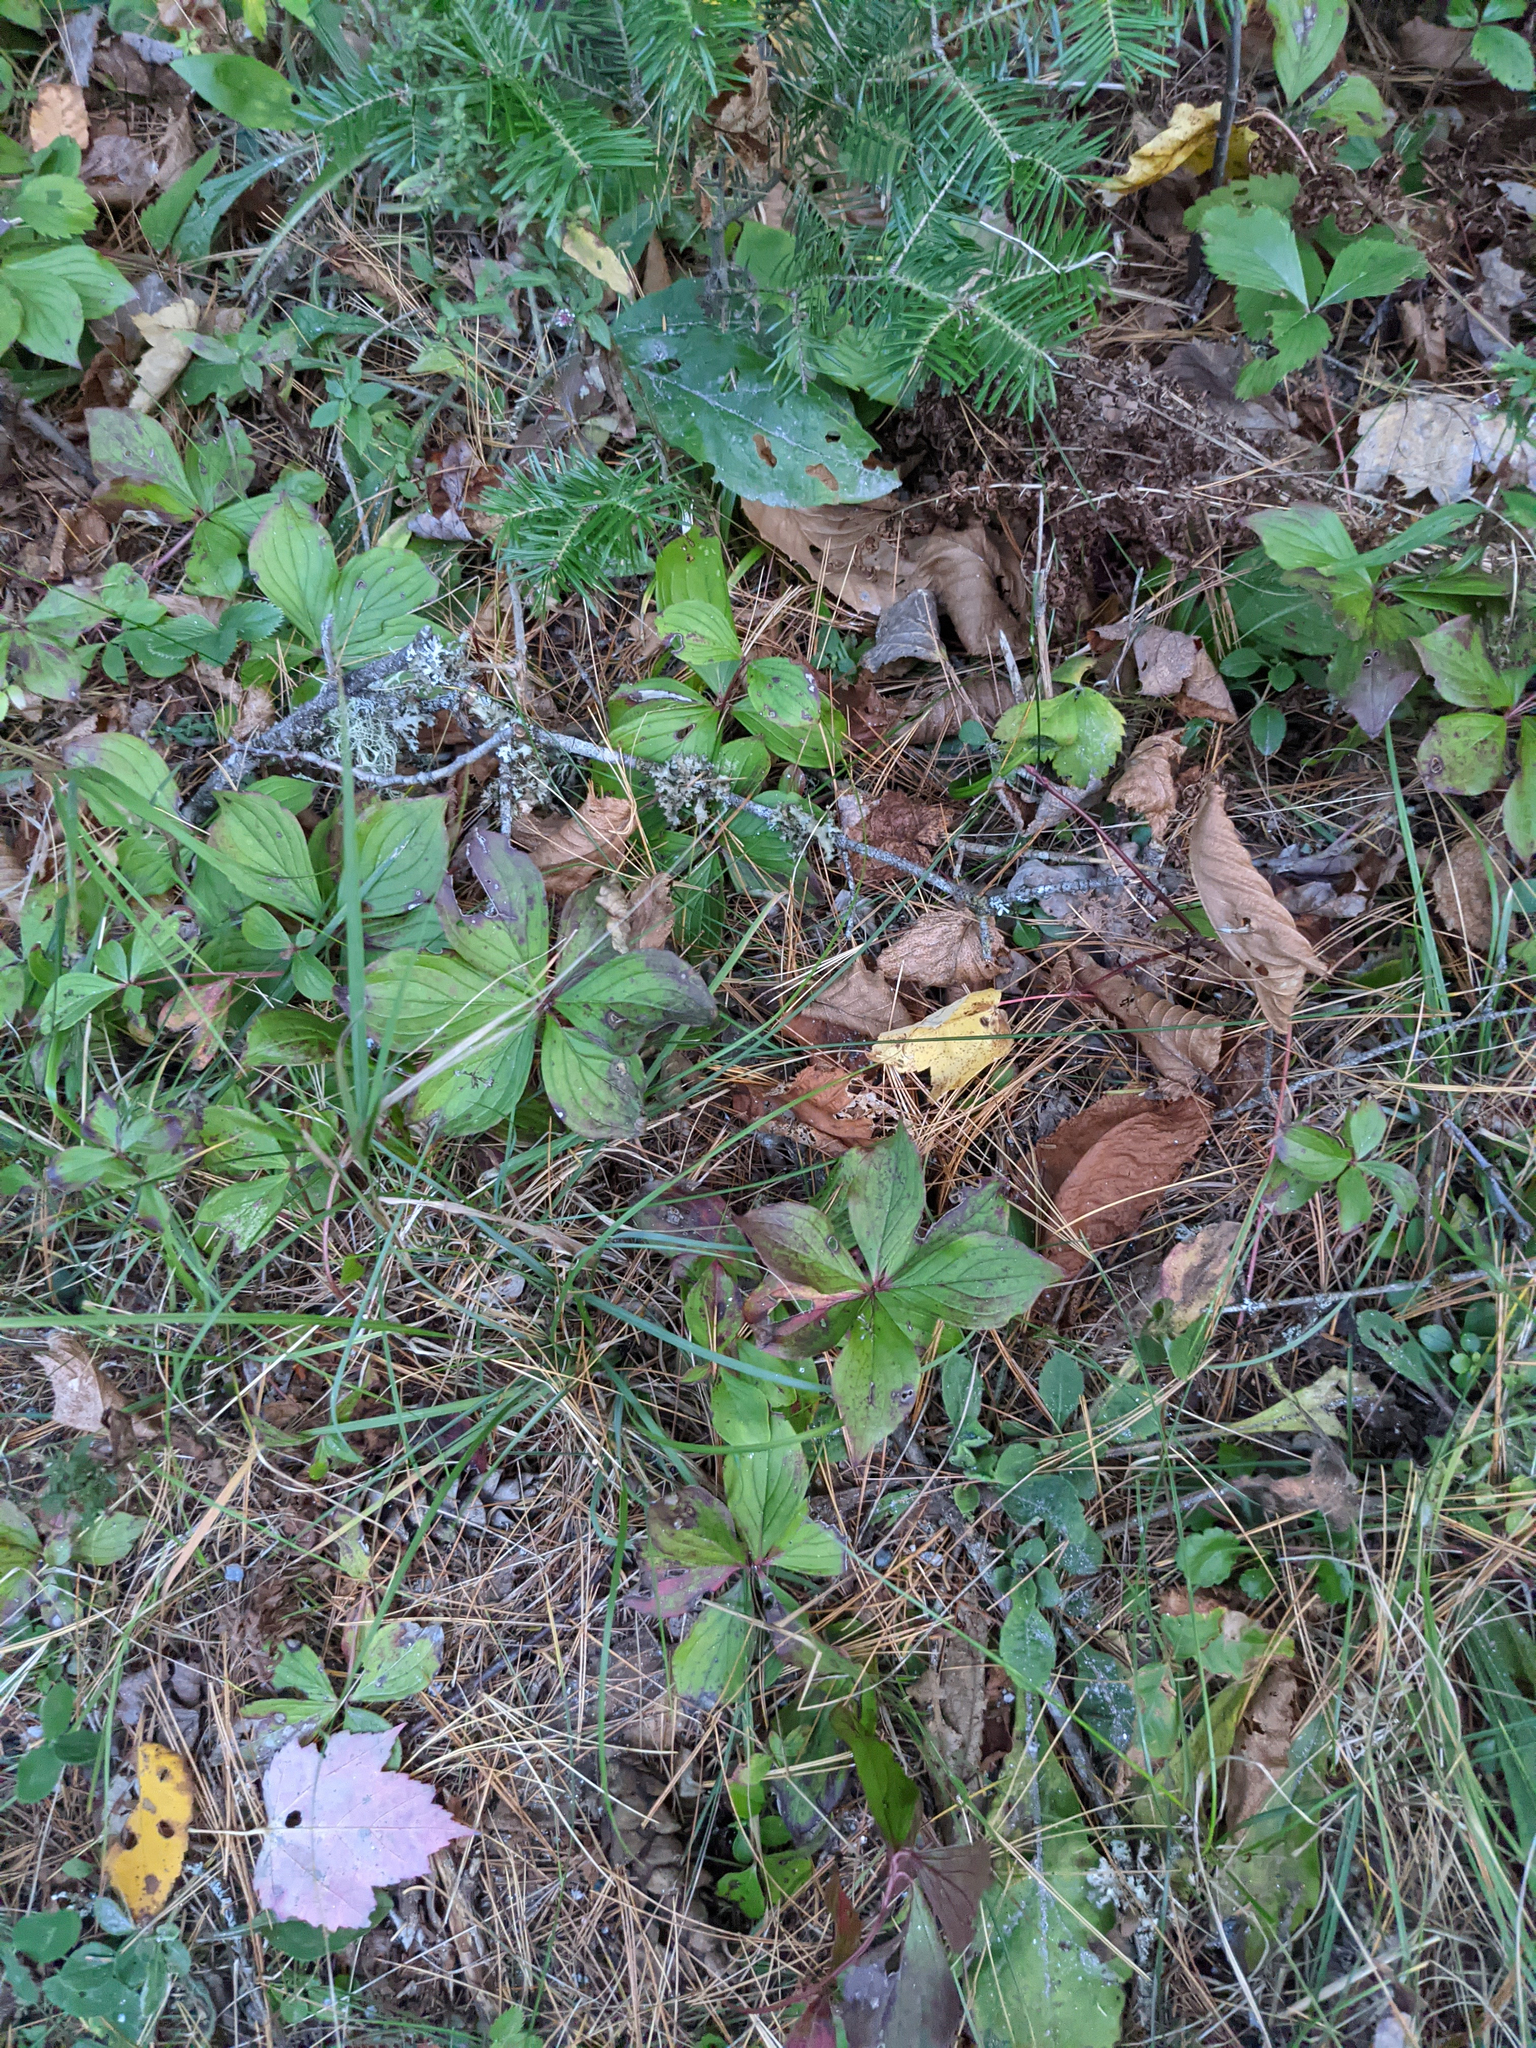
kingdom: Plantae
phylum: Tracheophyta
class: Magnoliopsida
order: Cornales
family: Cornaceae
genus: Cornus
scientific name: Cornus canadensis
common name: Creeping dogwood
